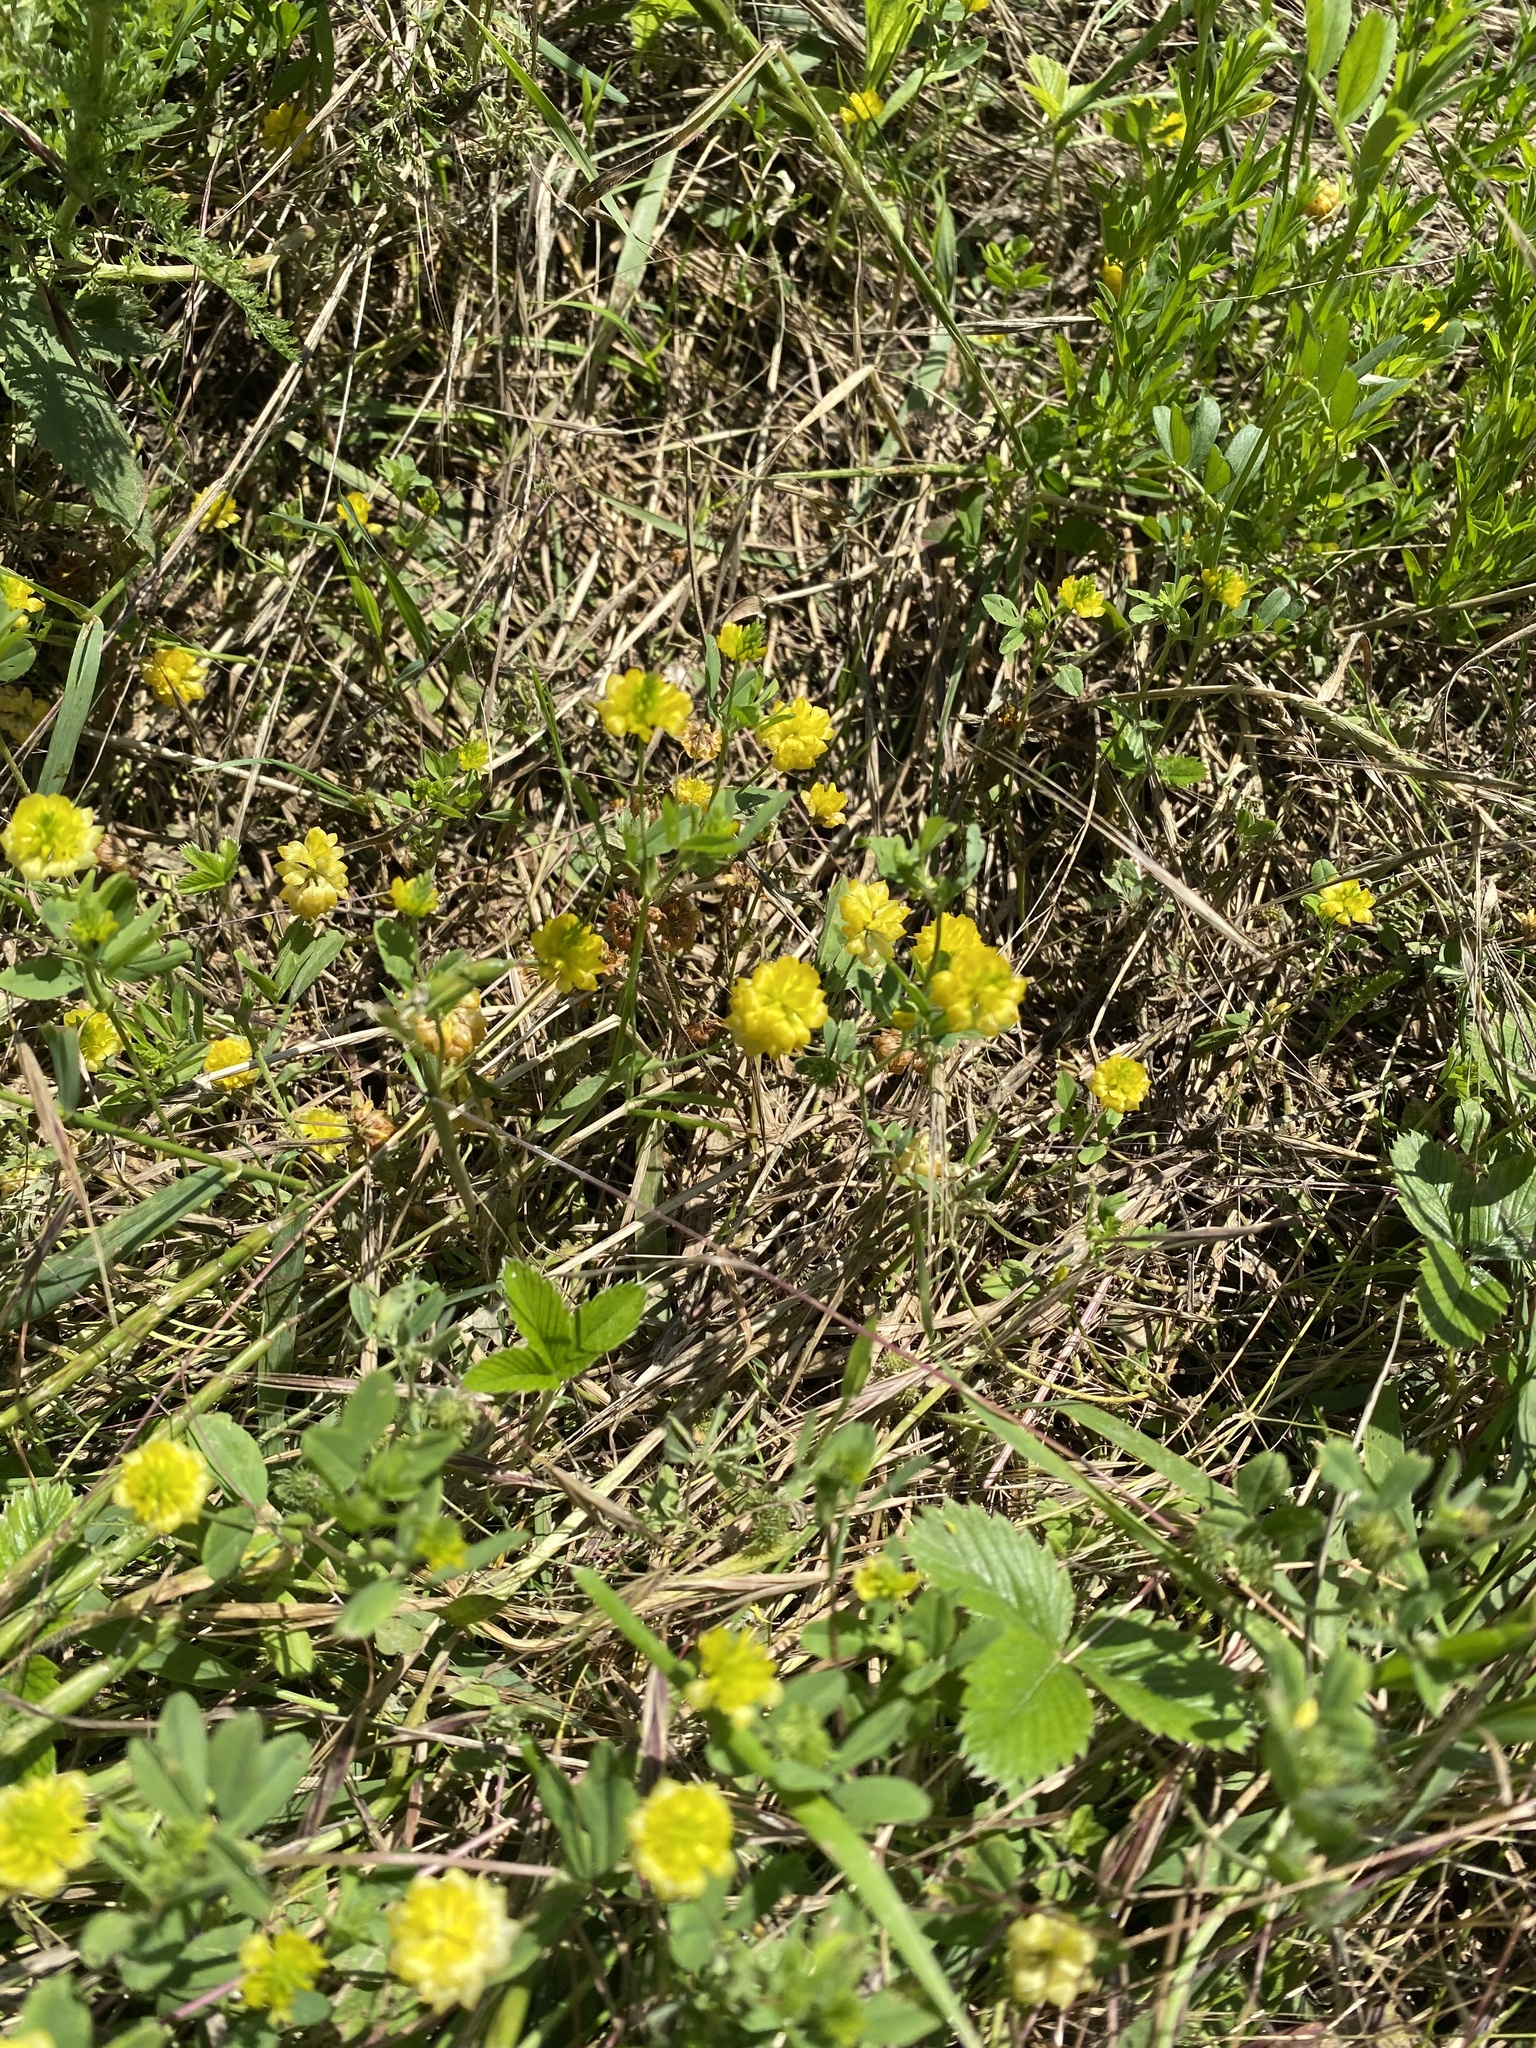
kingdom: Plantae
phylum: Tracheophyta
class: Magnoliopsida
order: Fabales
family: Fabaceae
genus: Trifolium
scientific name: Trifolium campestre
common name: Field clover
